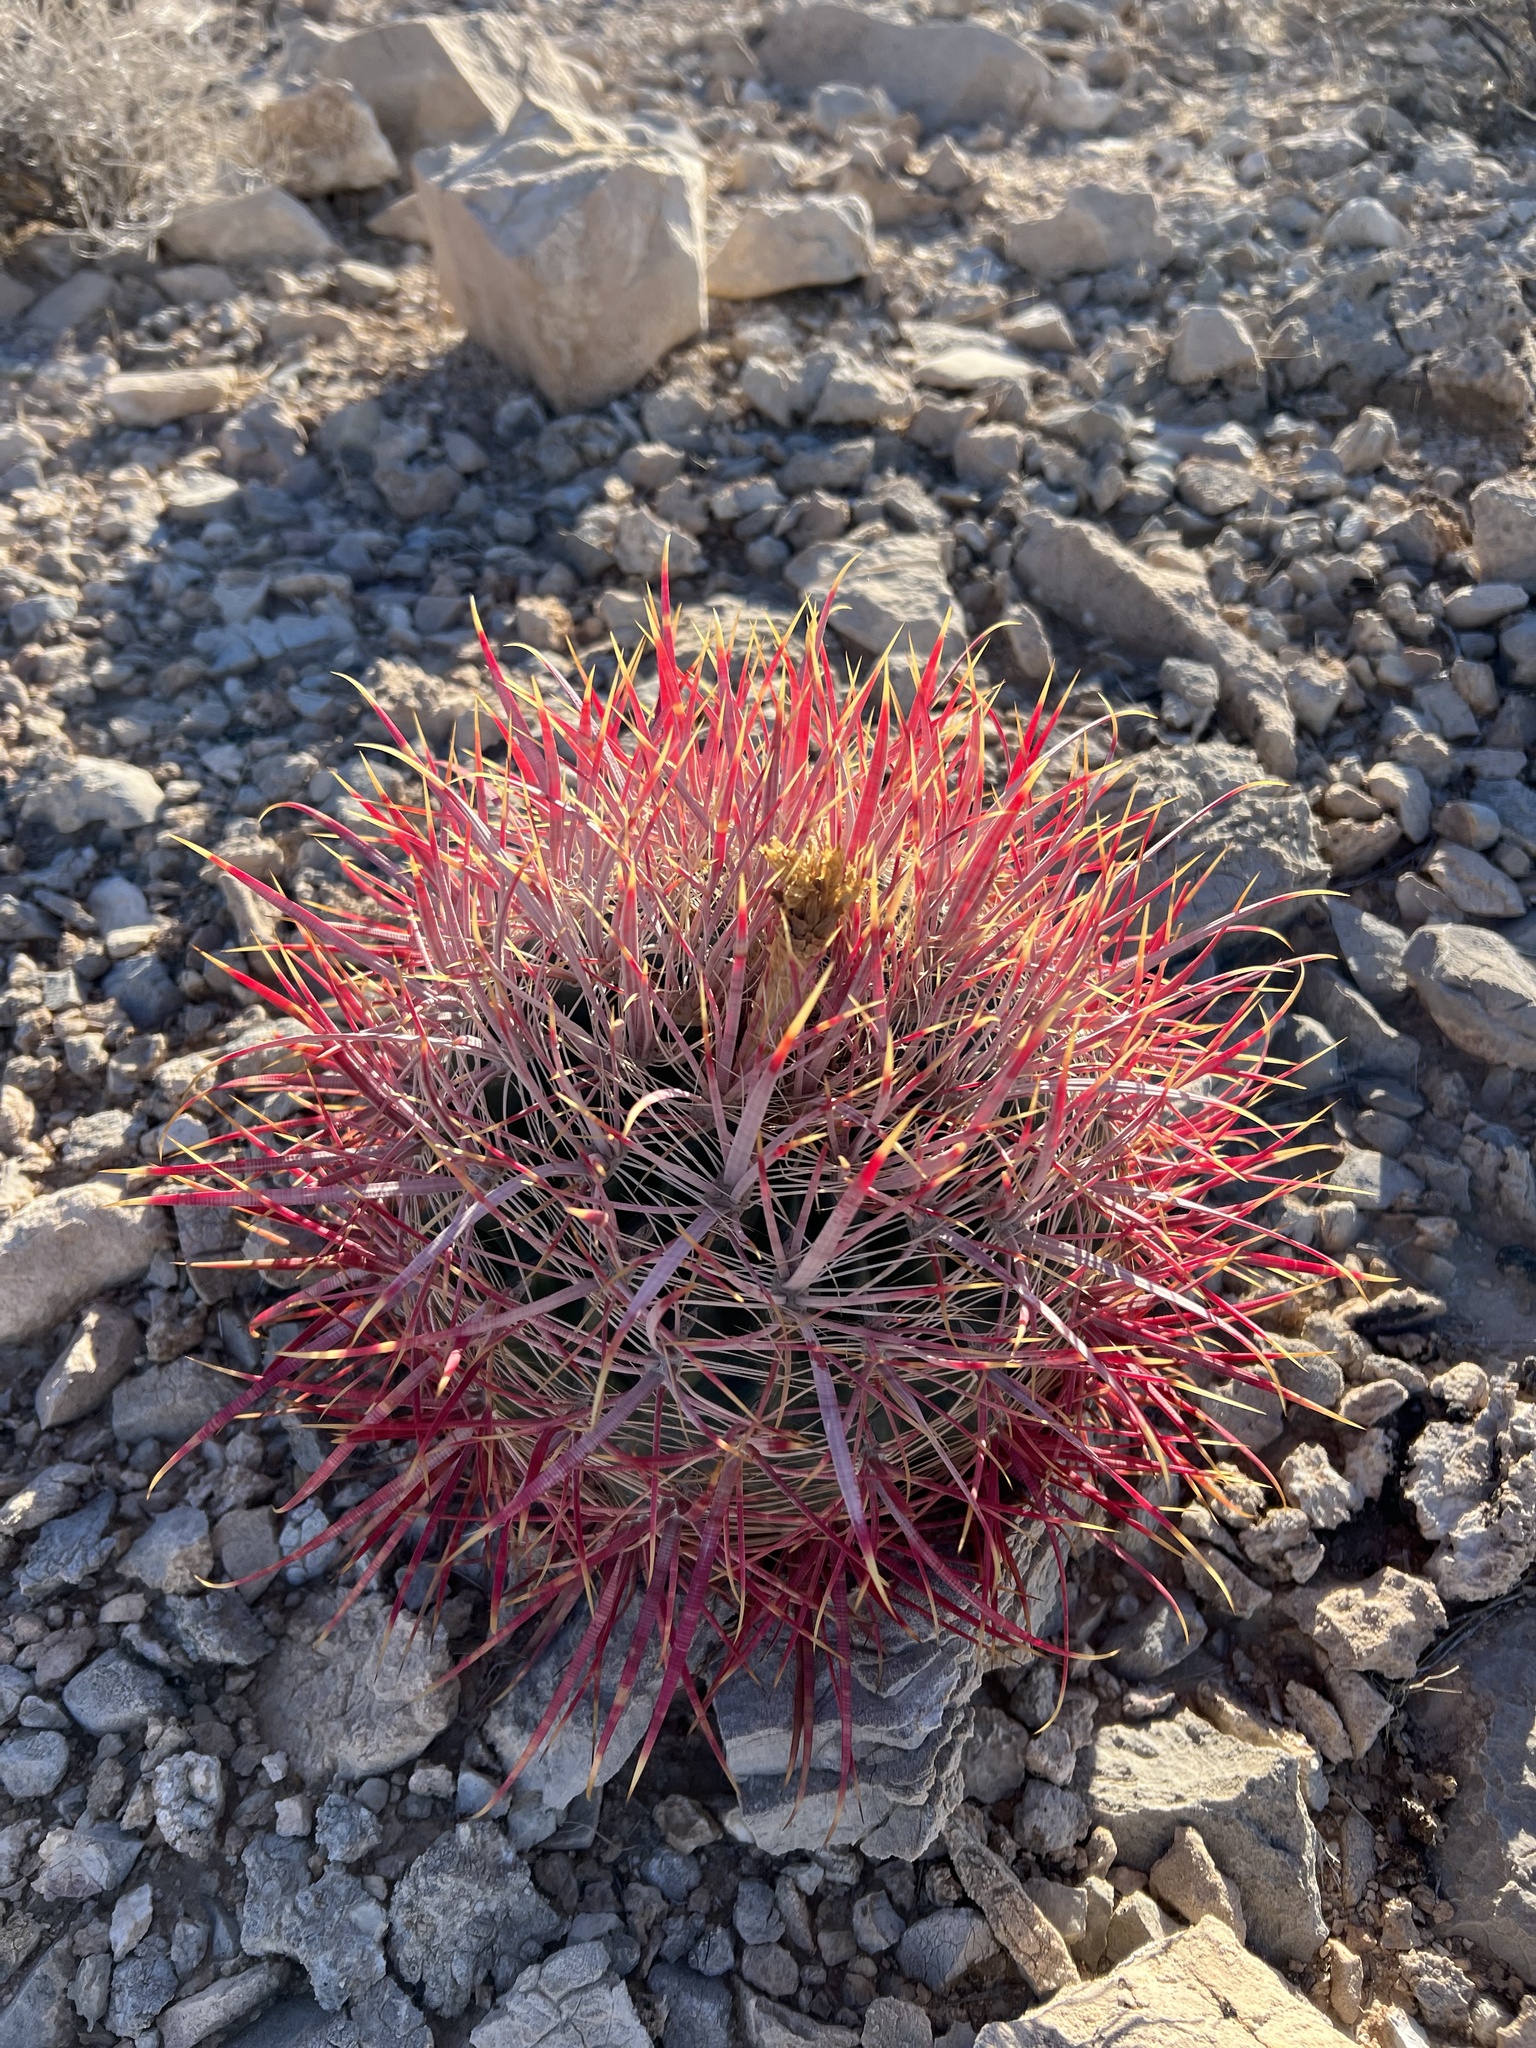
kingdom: Plantae
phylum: Tracheophyta
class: Magnoliopsida
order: Caryophyllales
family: Cactaceae
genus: Ferocactus
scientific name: Ferocactus cylindraceus
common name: California barrel cactus
